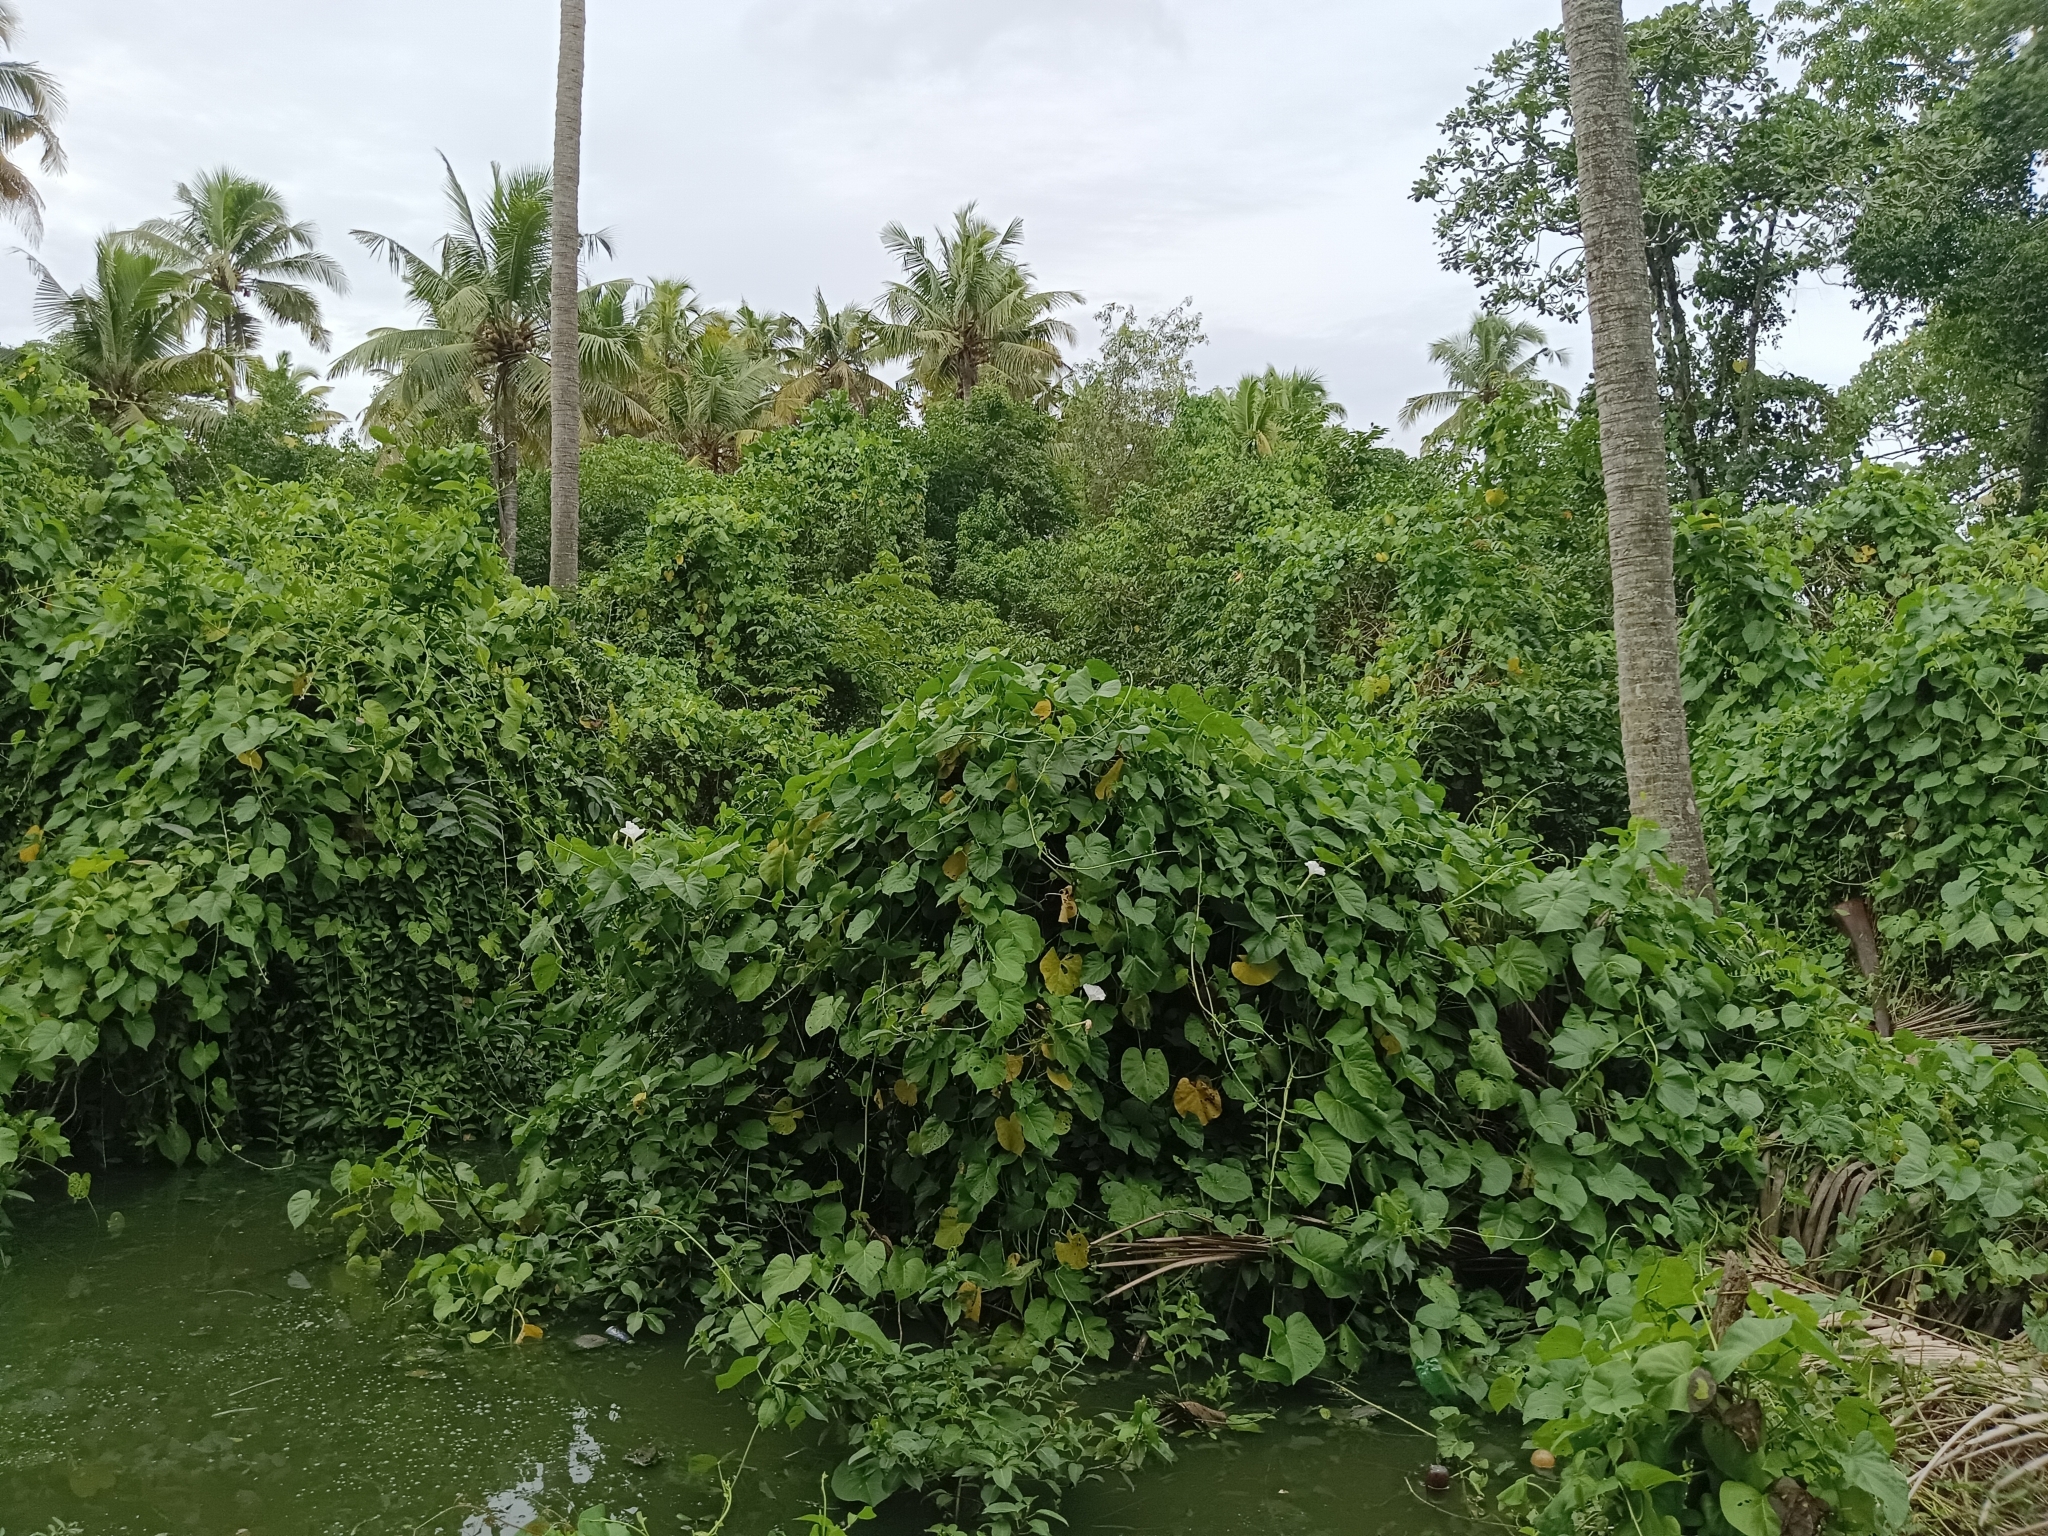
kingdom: Plantae
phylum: Tracheophyta
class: Magnoliopsida
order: Solanales
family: Convolvulaceae
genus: Ipomoea
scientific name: Ipomoea violacea
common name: Beach moonflower
